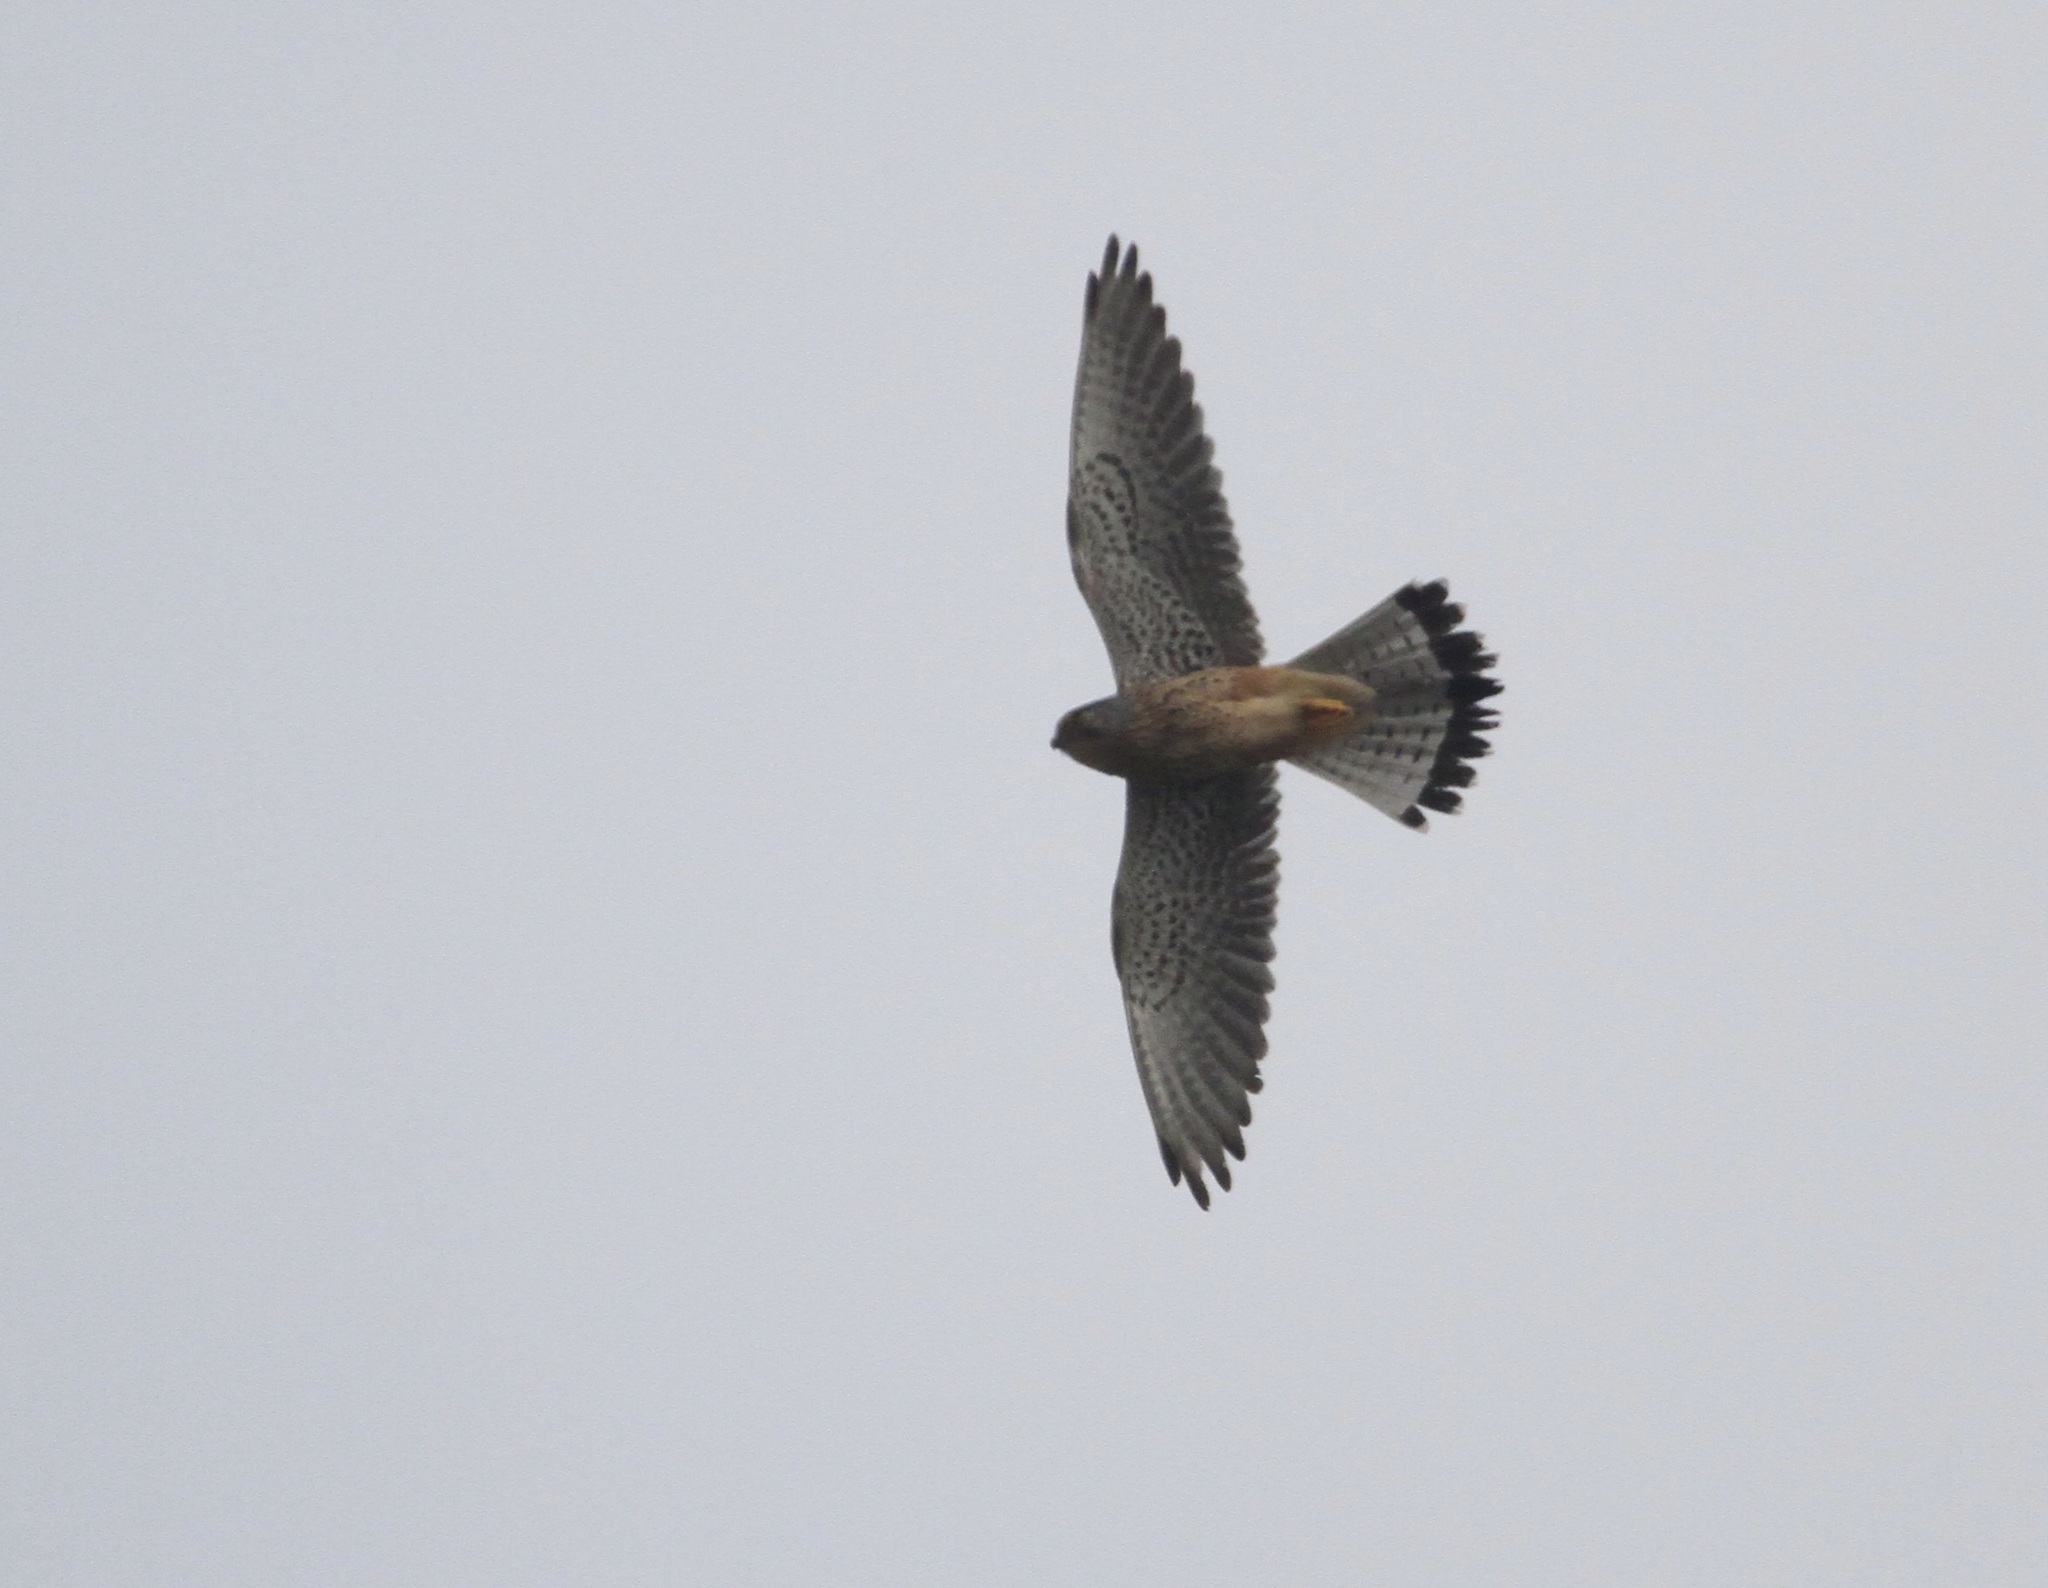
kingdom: Animalia
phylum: Chordata
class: Aves
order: Falconiformes
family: Falconidae
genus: Falco
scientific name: Falco tinnunculus
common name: Common kestrel
